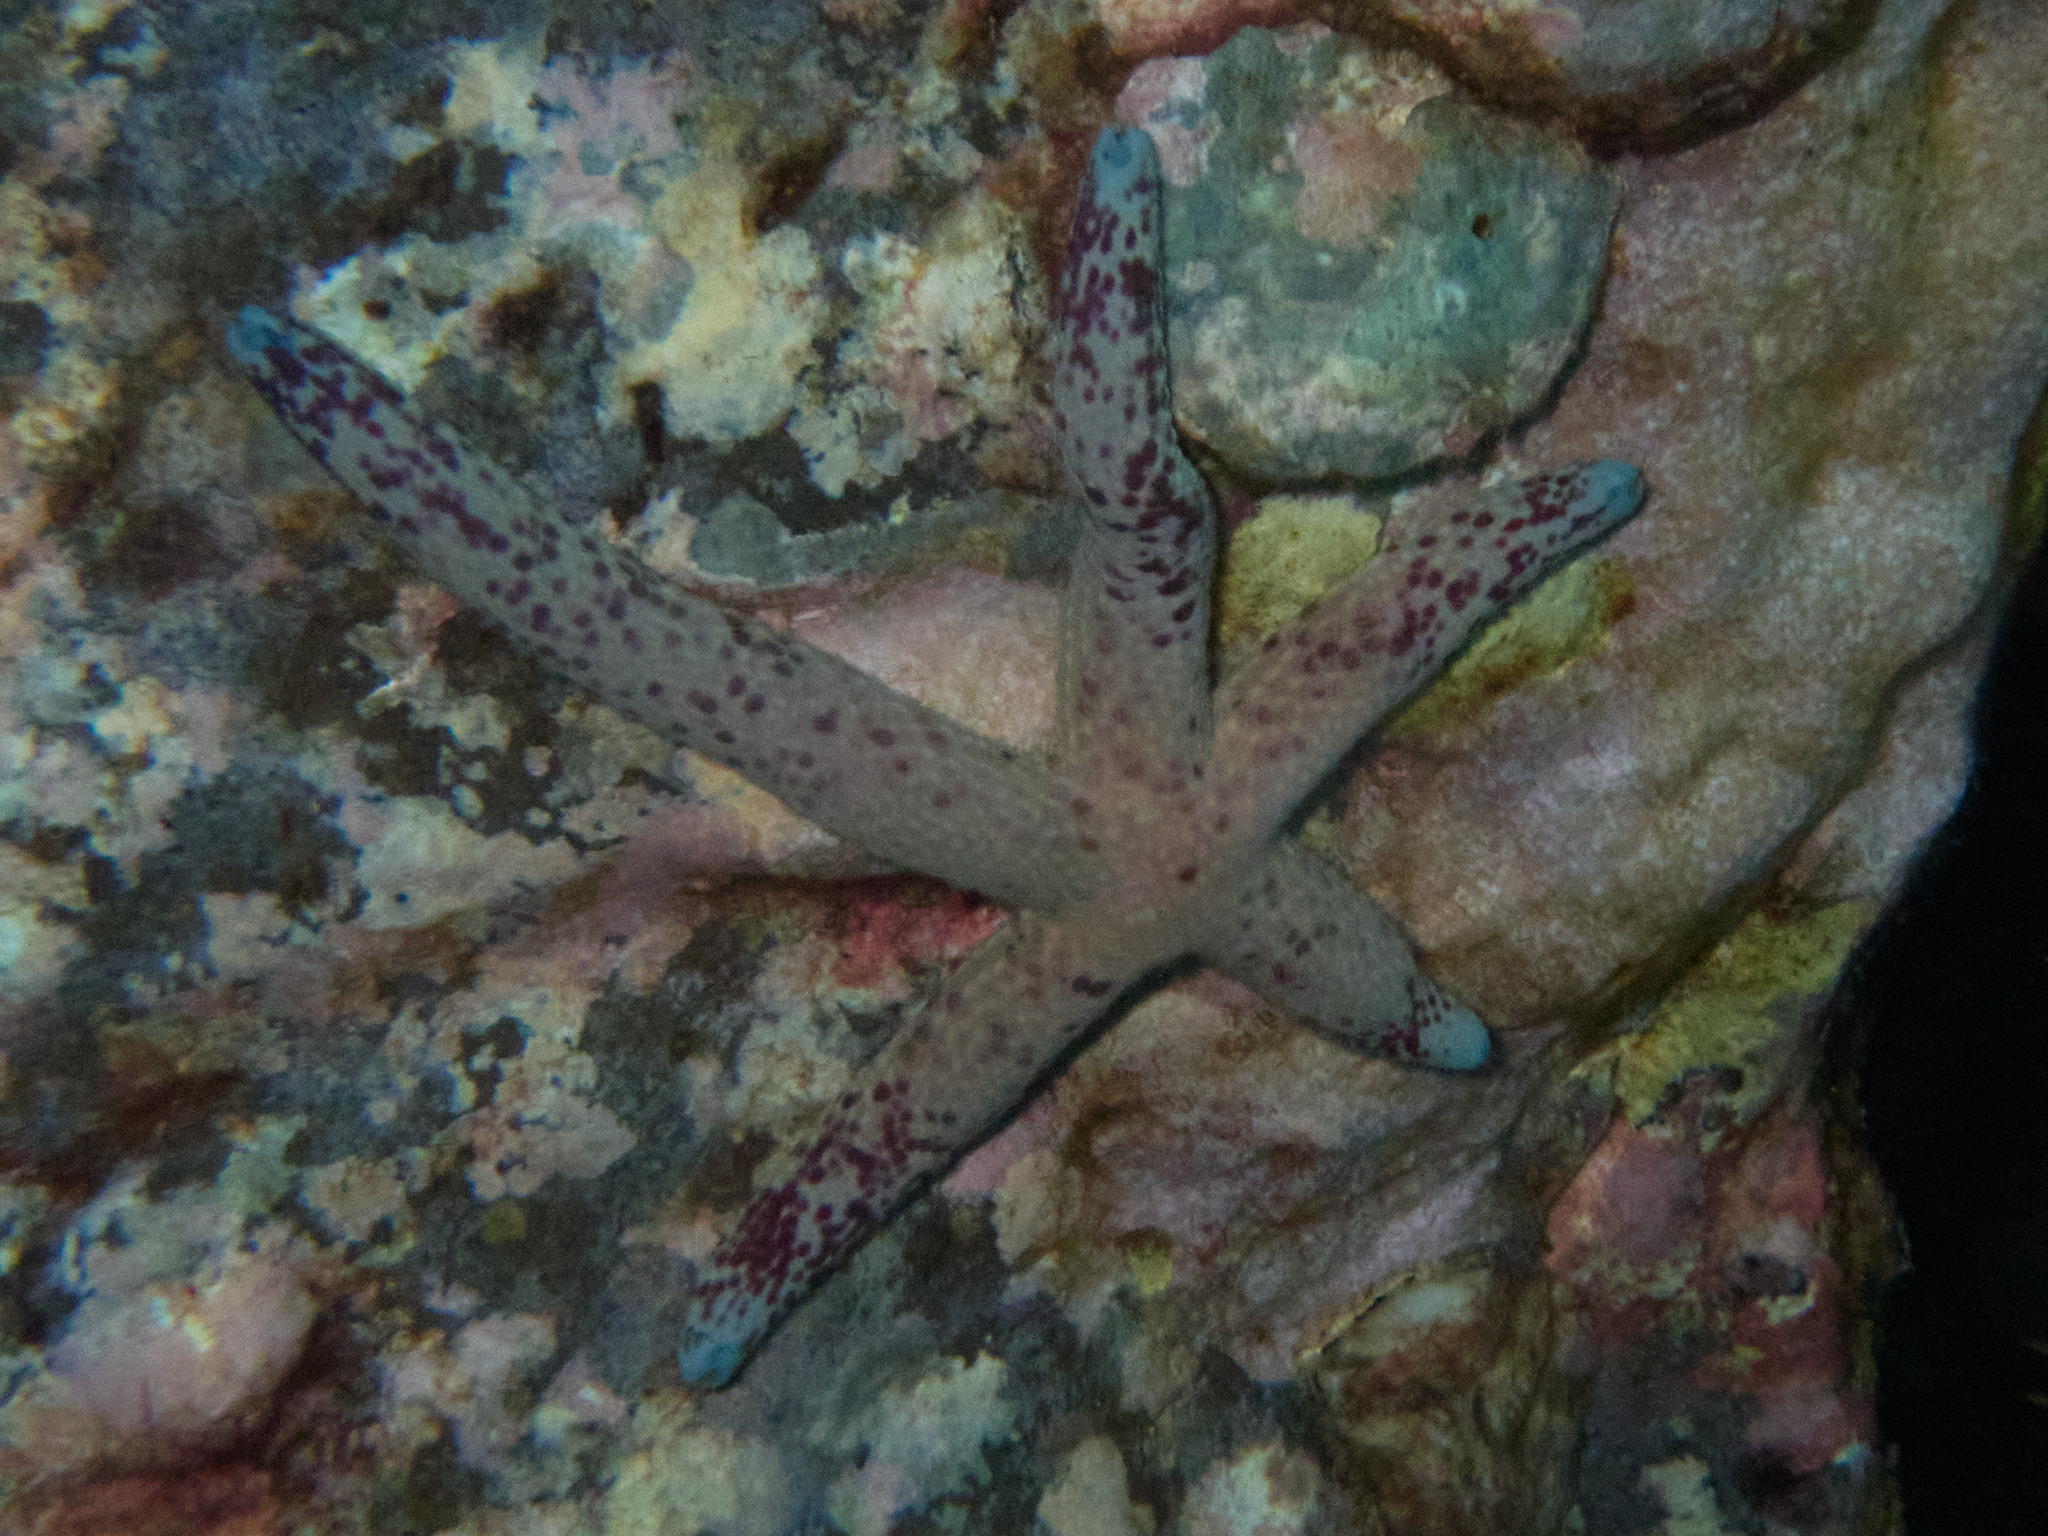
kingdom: Animalia
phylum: Echinodermata
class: Asteroidea
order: Valvatida
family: Ophidiasteridae
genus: Linckia
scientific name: Linckia multifora
